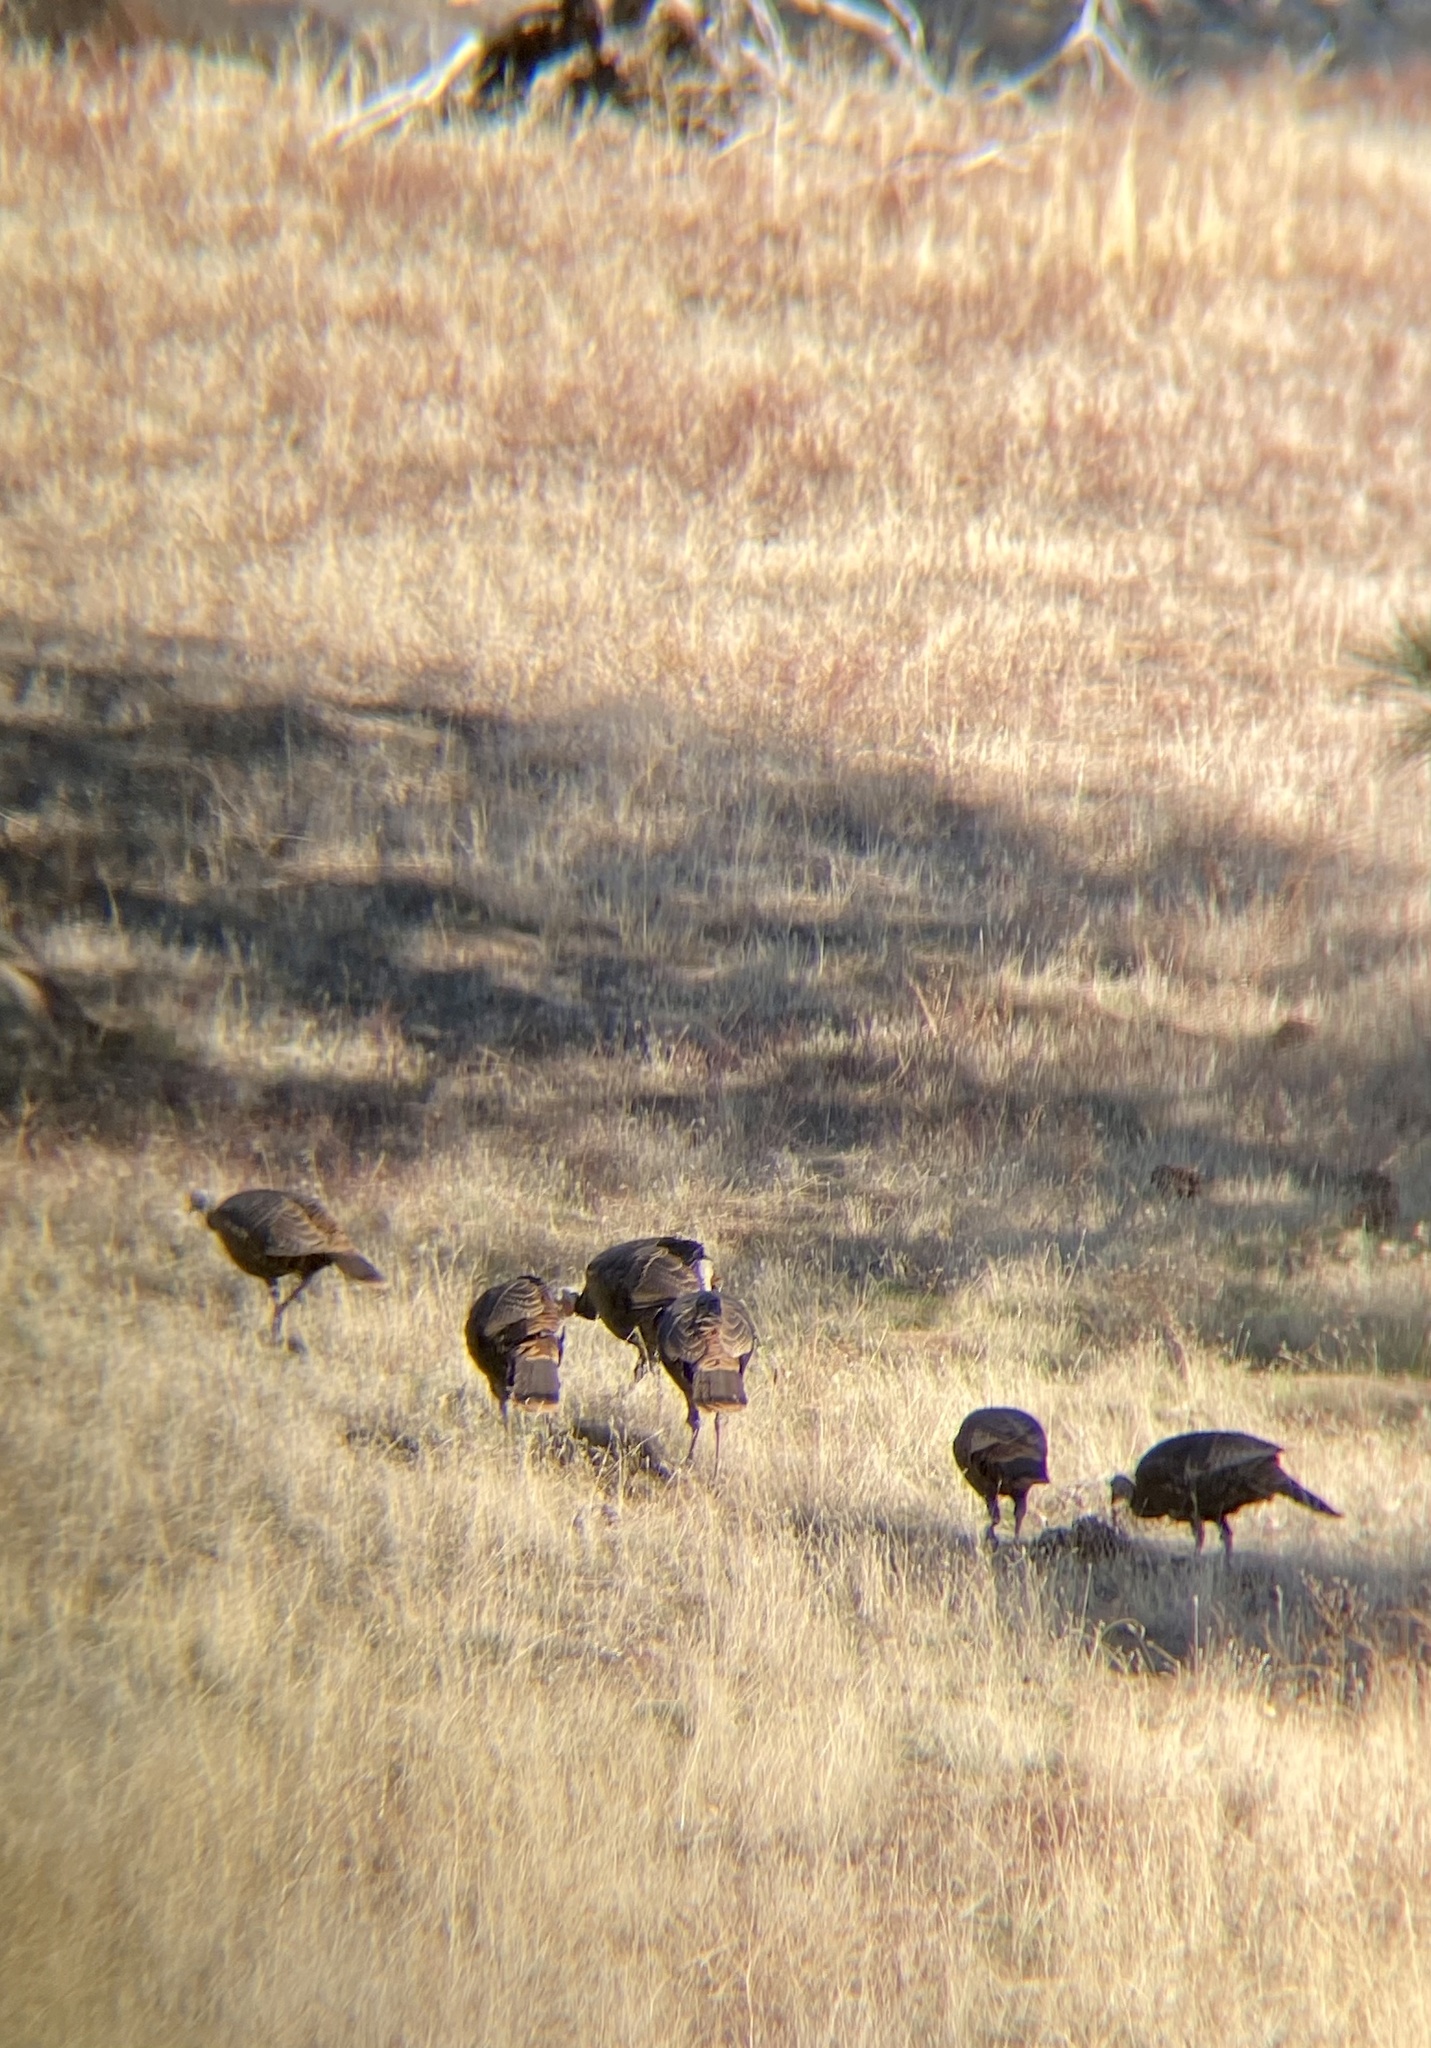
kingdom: Animalia
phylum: Chordata
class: Aves
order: Galliformes
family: Phasianidae
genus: Meleagris
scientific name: Meleagris gallopavo
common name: Wild turkey
